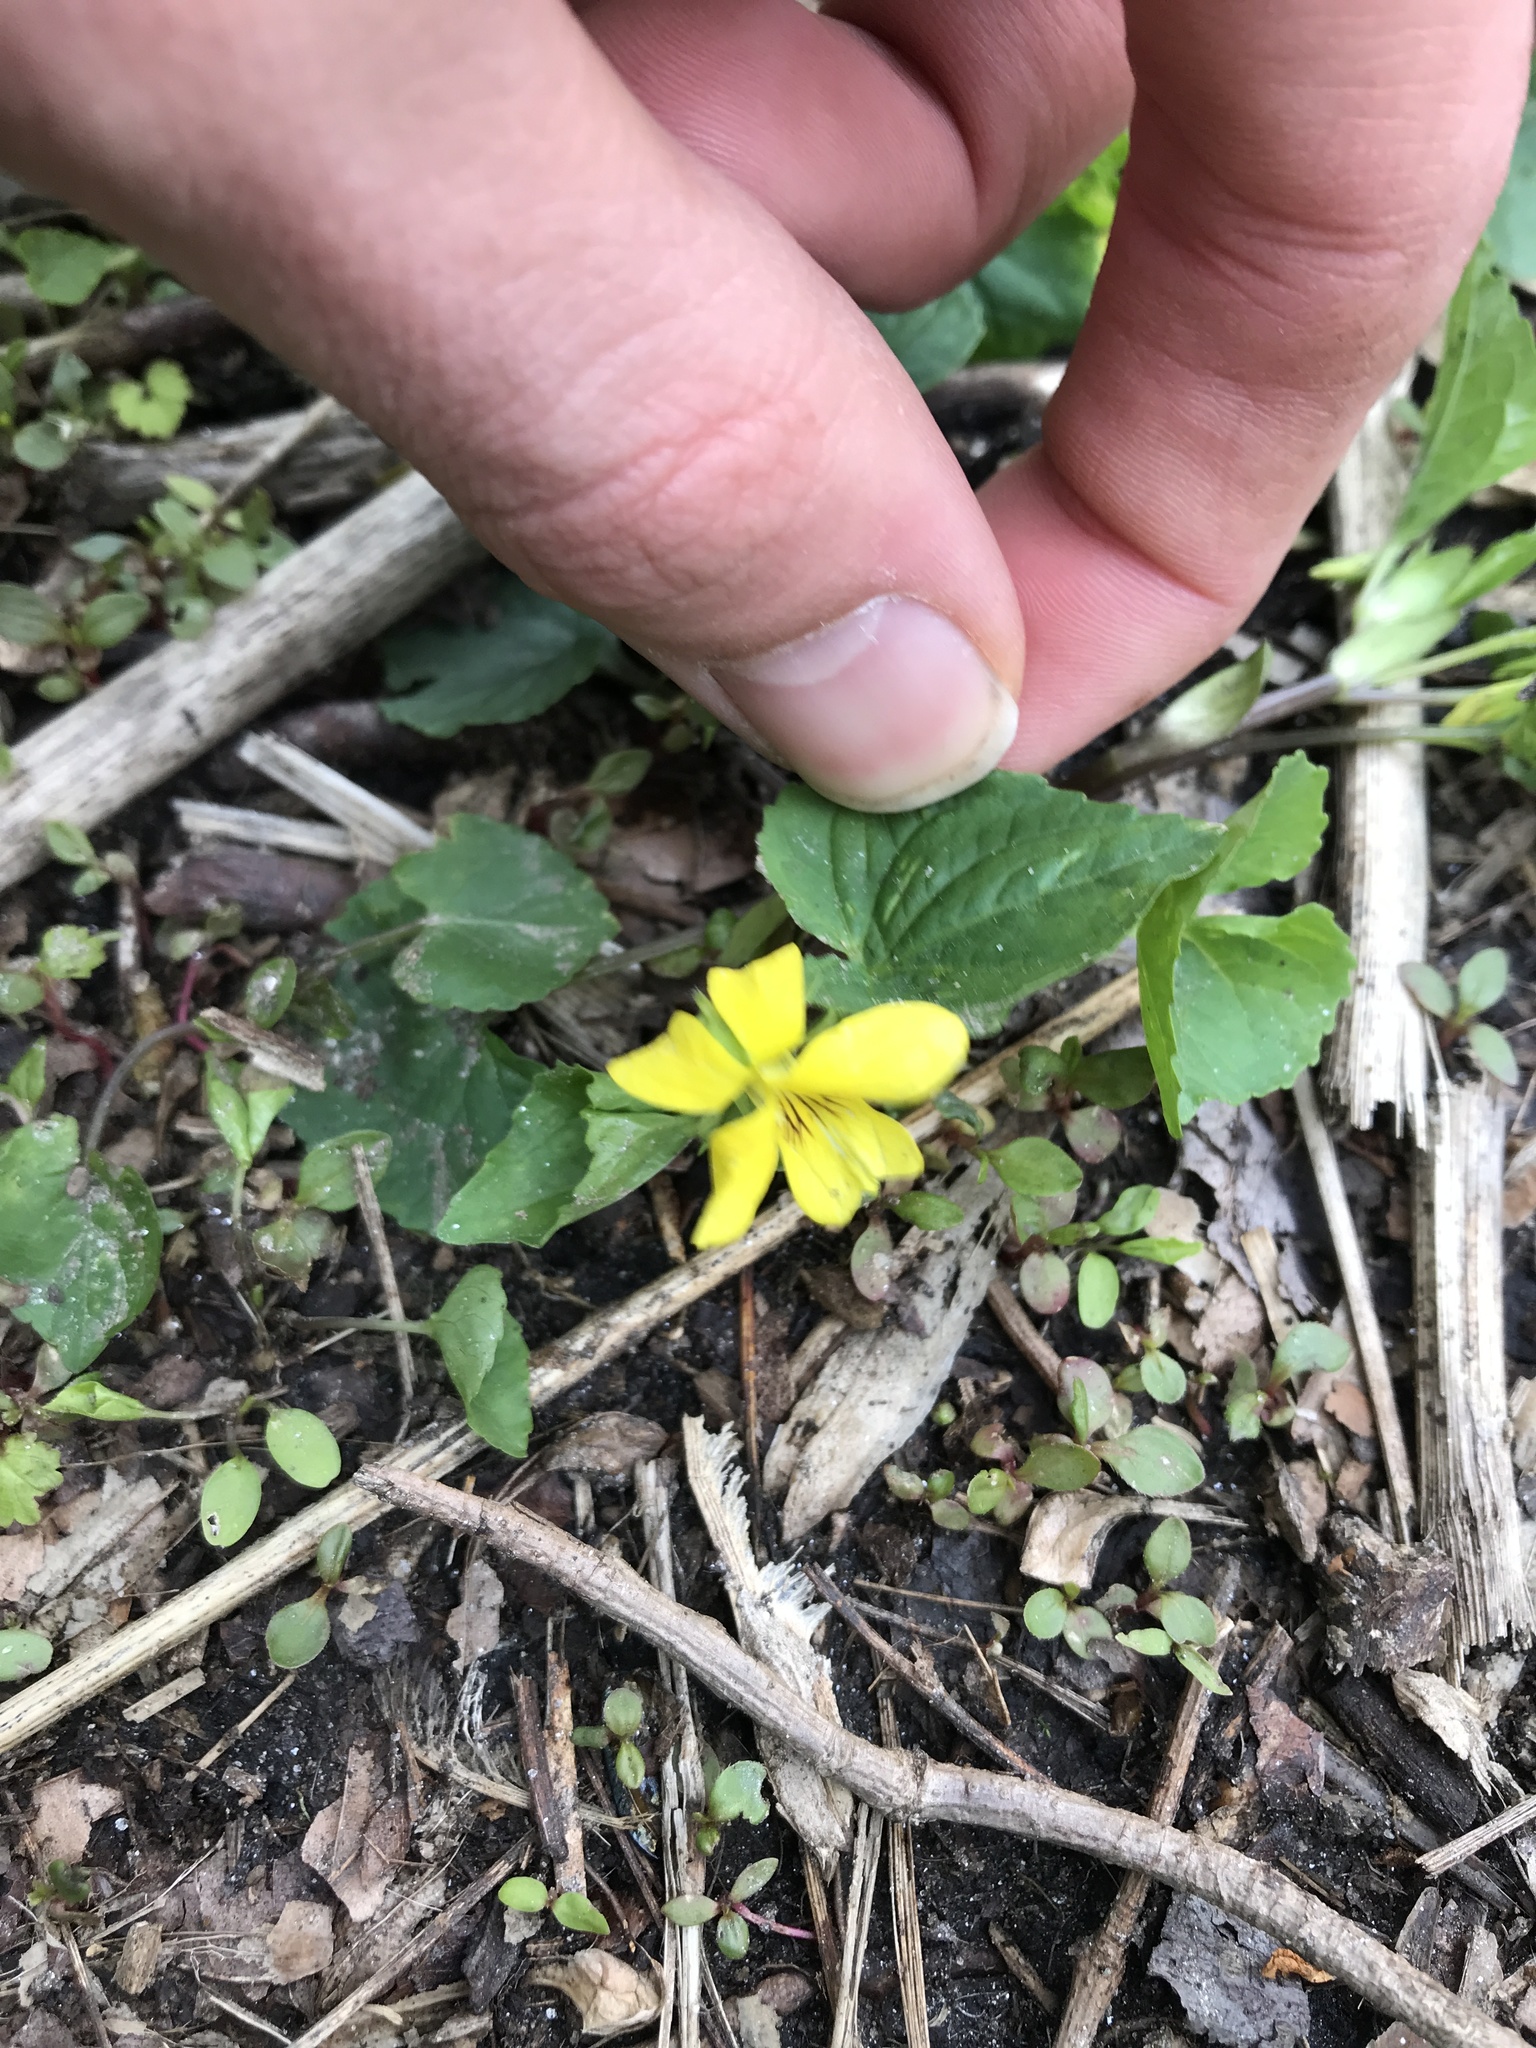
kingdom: Plantae
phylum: Tracheophyta
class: Magnoliopsida
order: Malpighiales
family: Violaceae
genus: Viola
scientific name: Viola eriocarpa
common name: Smooth yellow violet
